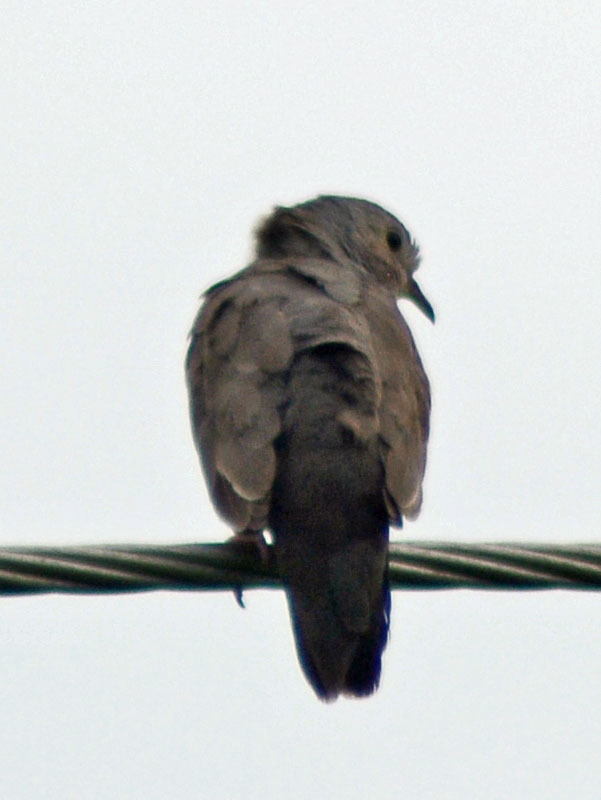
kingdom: Animalia
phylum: Chordata
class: Aves
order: Columbiformes
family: Columbidae
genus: Columbina
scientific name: Columbina talpacoti
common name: Ruddy ground dove
